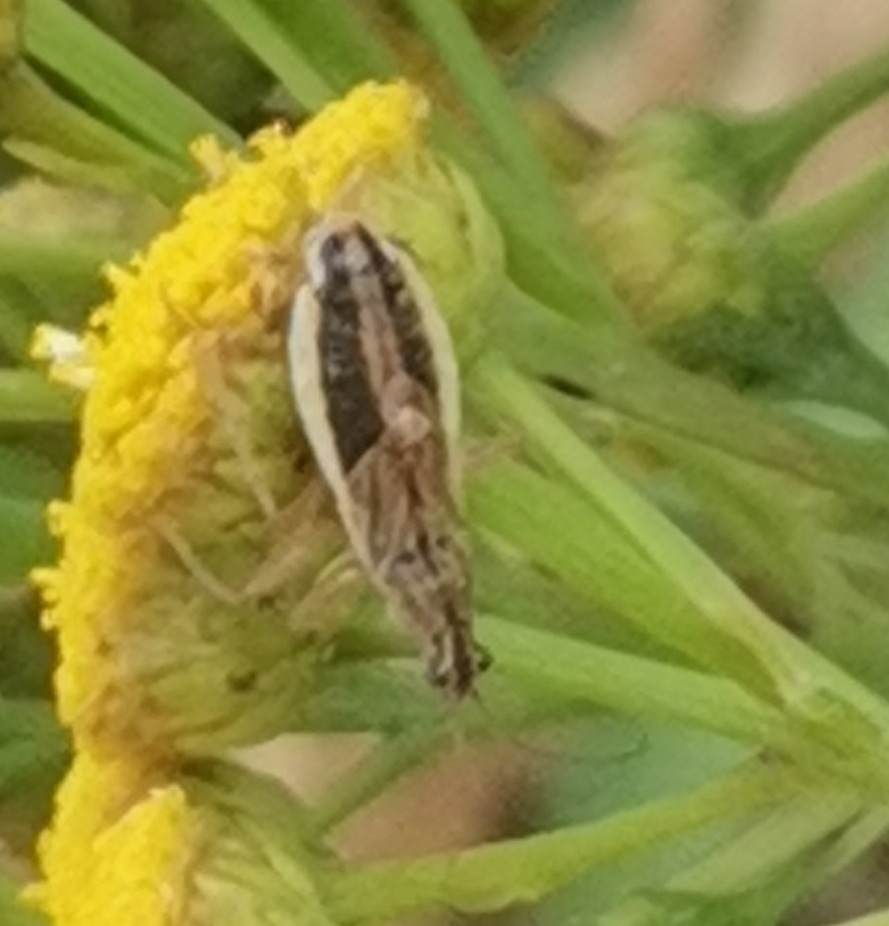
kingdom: Animalia
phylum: Arthropoda
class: Insecta
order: Hemiptera
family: Nabidae
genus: Nabis
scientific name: Nabis flavomarginatus
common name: Broad damselbug
